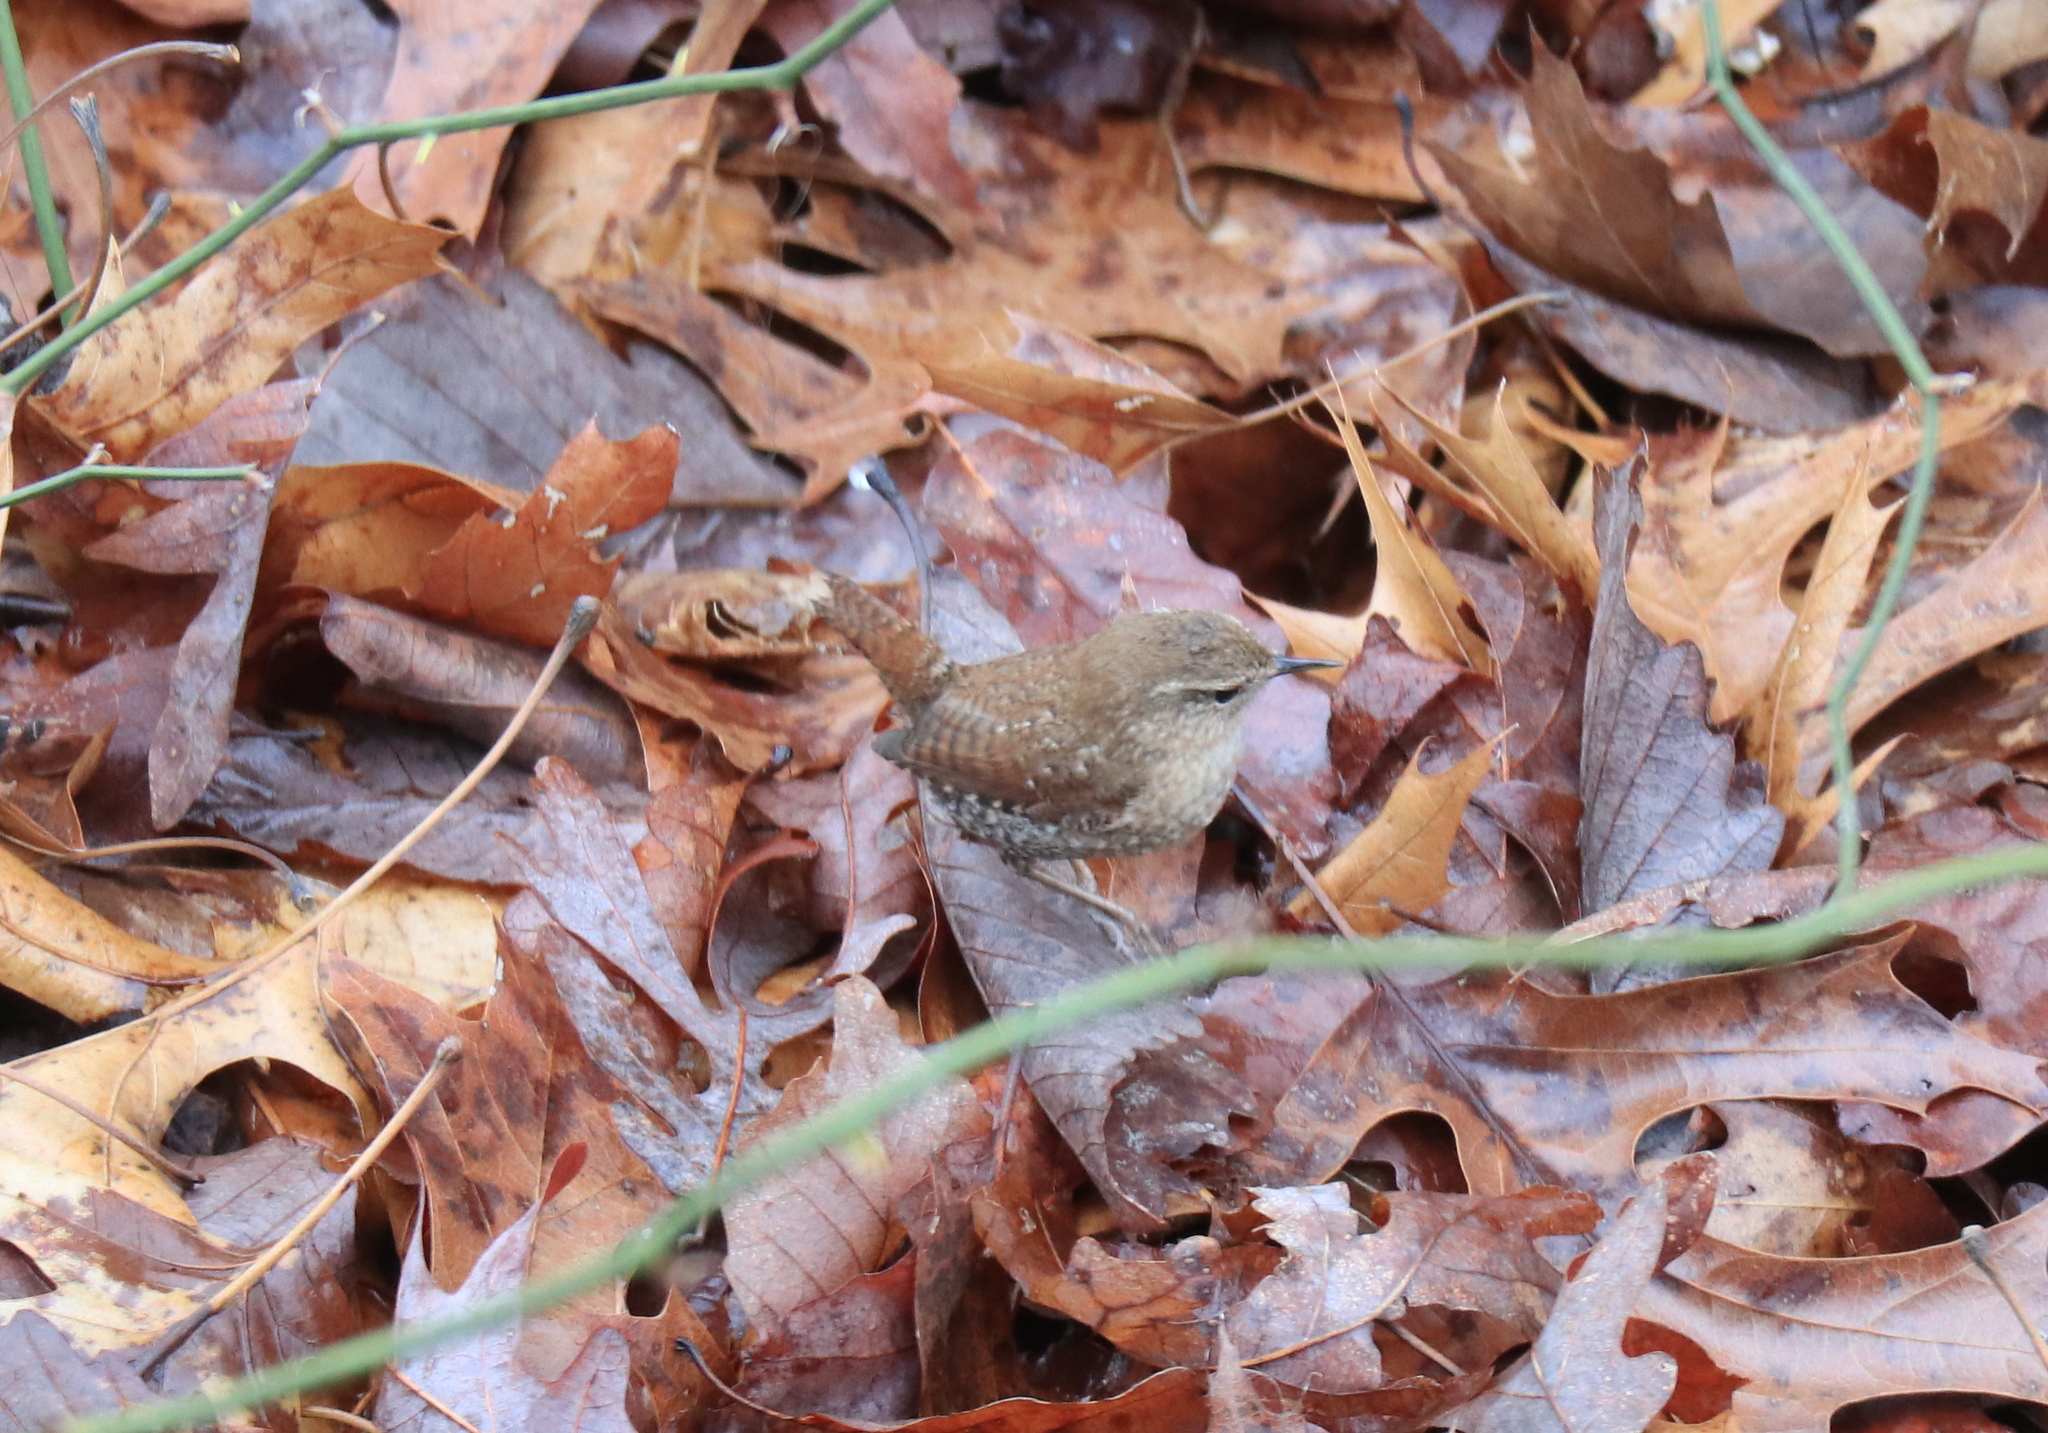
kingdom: Animalia
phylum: Chordata
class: Aves
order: Passeriformes
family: Troglodytidae
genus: Troglodytes
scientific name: Troglodytes hiemalis
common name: Winter wren
